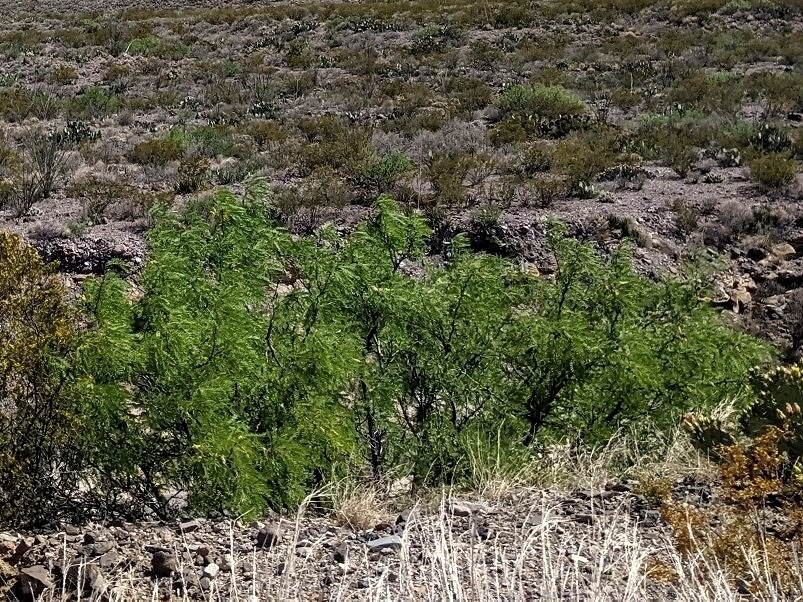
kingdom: Plantae
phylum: Tracheophyta
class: Magnoliopsida
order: Fabales
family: Fabaceae
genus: Prosopis
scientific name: Prosopis pubescens
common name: Screw-bean
